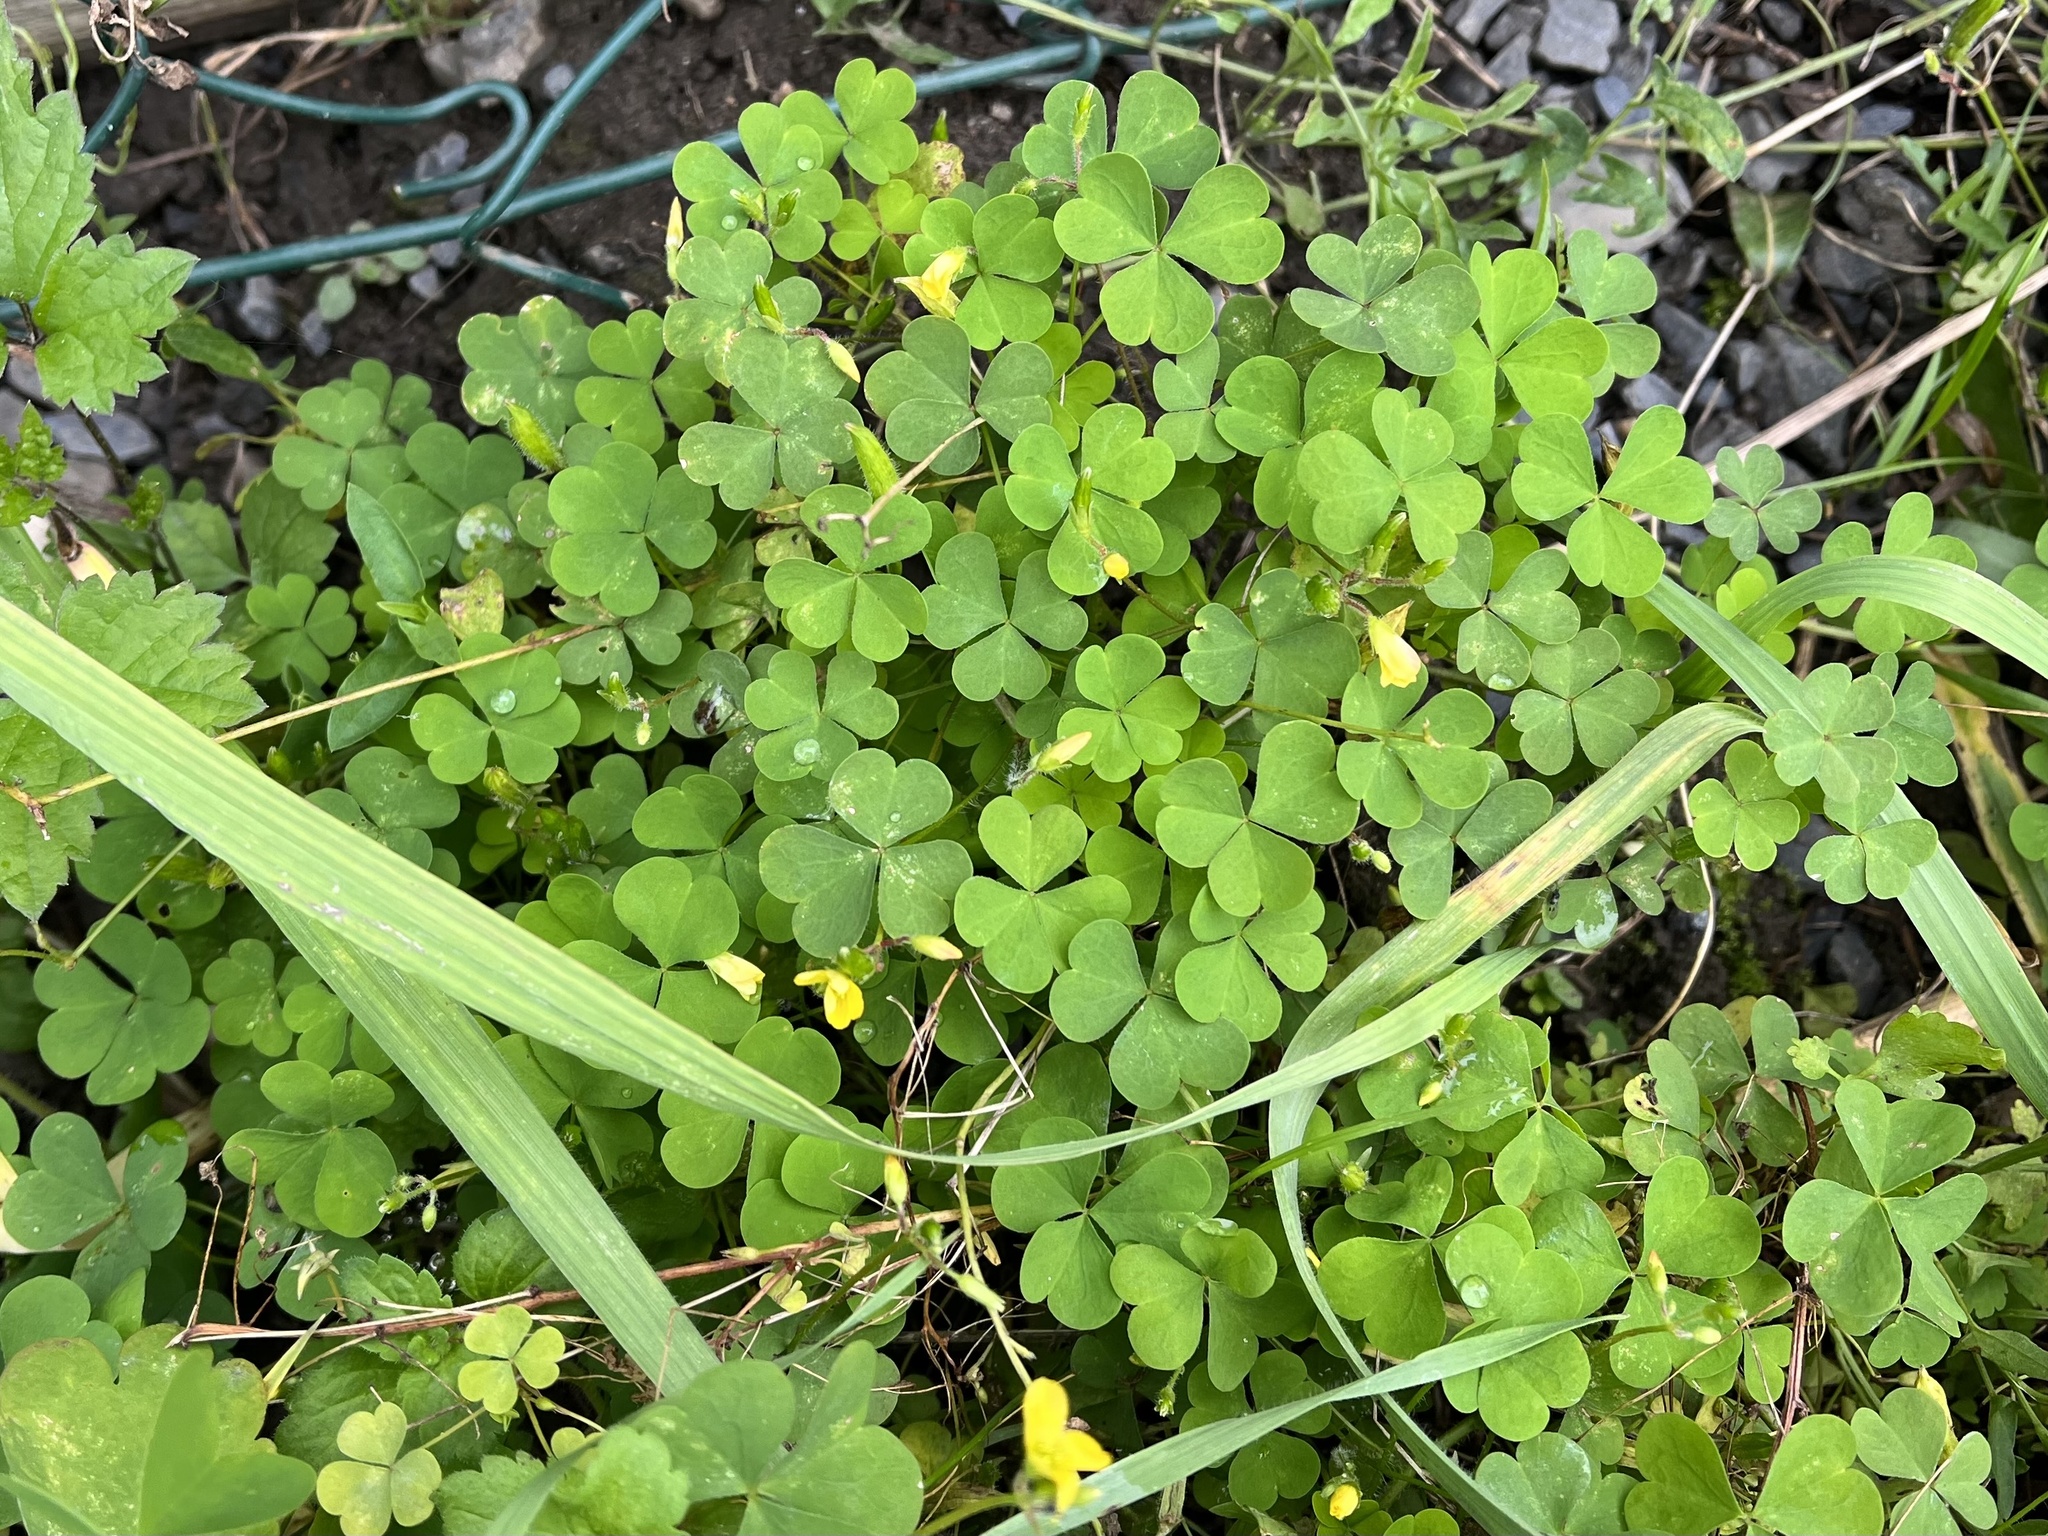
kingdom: Plantae
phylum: Tracheophyta
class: Magnoliopsida
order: Oxalidales
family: Oxalidaceae
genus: Oxalis
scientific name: Oxalis stricta
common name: Upright yellow-sorrel
